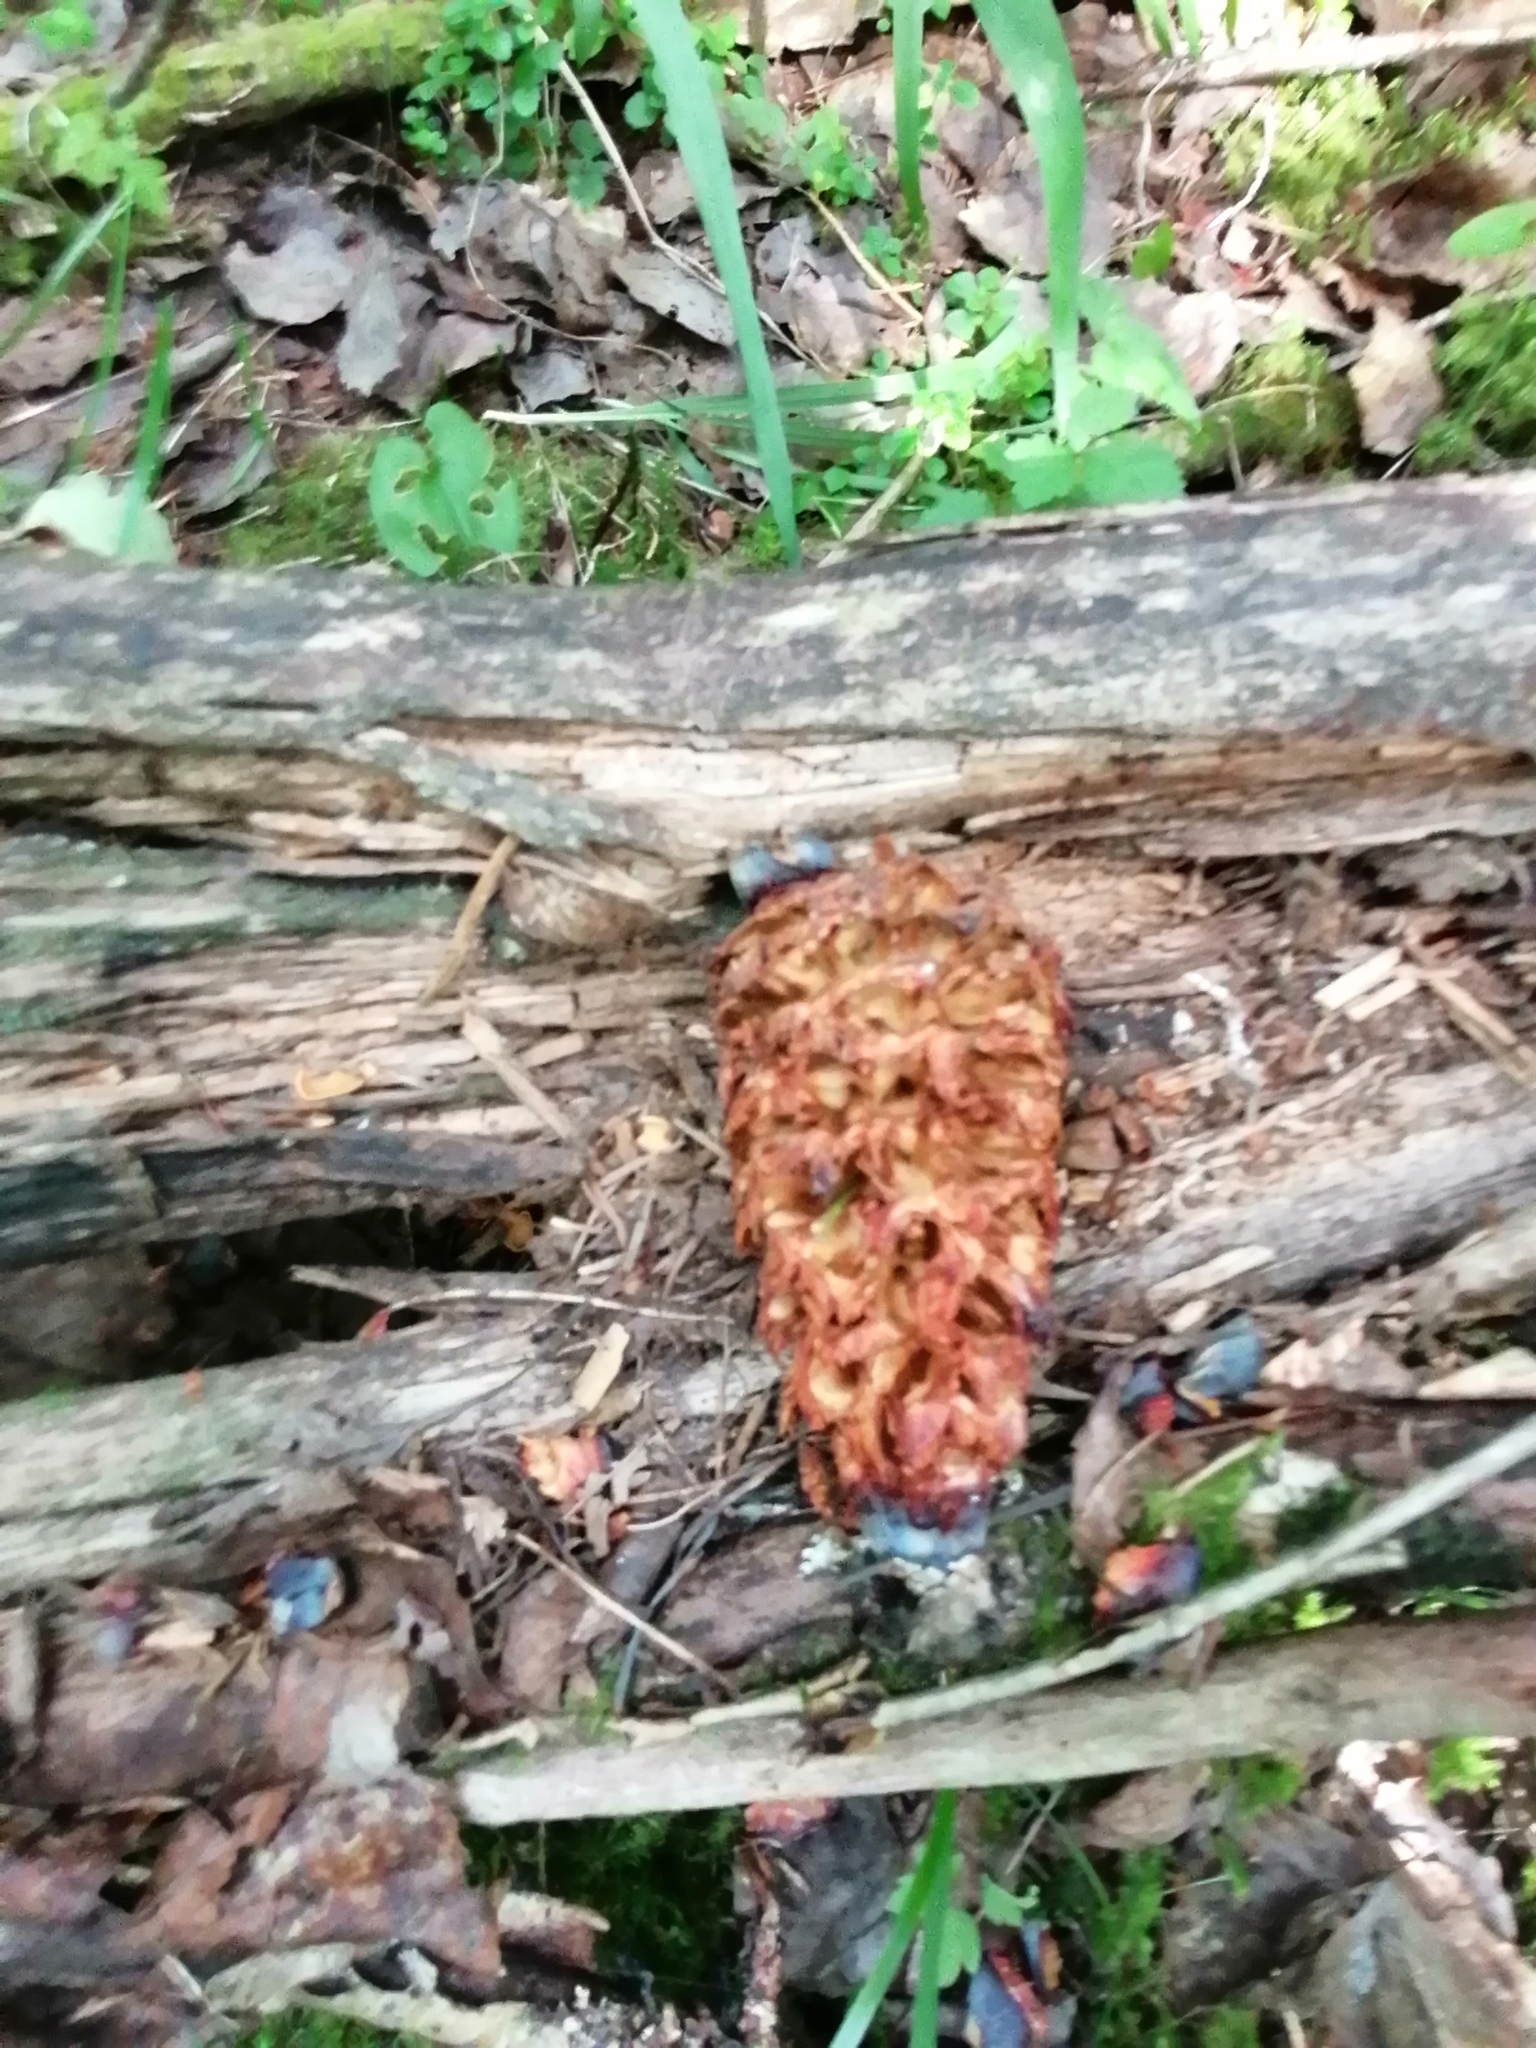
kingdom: Animalia
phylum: Chordata
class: Aves
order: Passeriformes
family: Corvidae
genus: Nucifraga
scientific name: Nucifraga caryocatactes
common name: Spotted nutcracker
